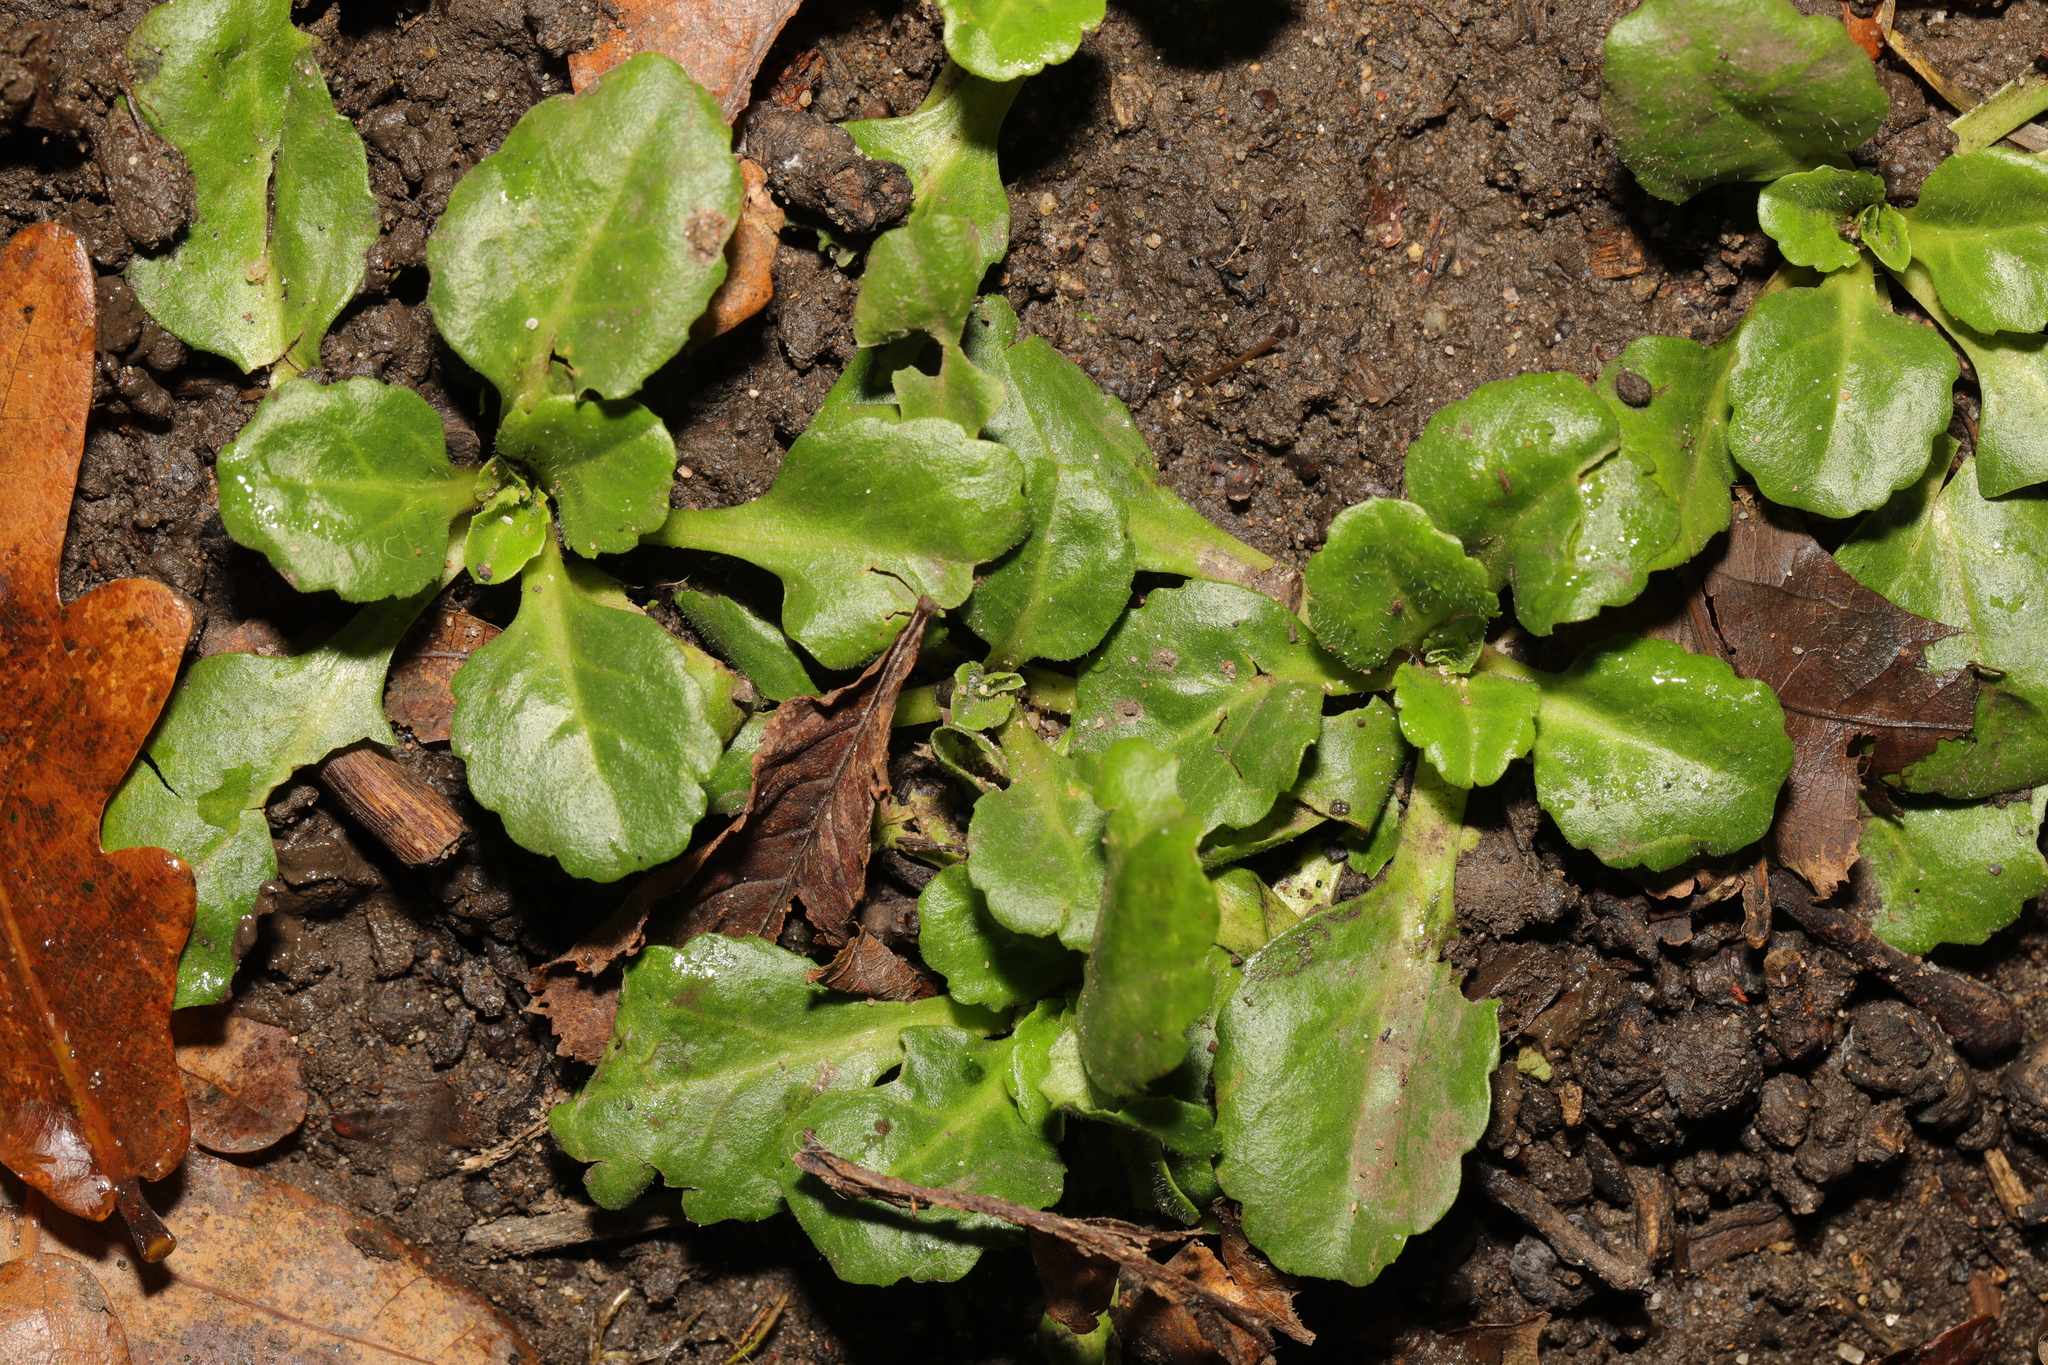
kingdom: Plantae
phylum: Tracheophyta
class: Magnoliopsida
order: Asterales
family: Asteraceae
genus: Bellis
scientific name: Bellis perennis
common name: Lawndaisy
